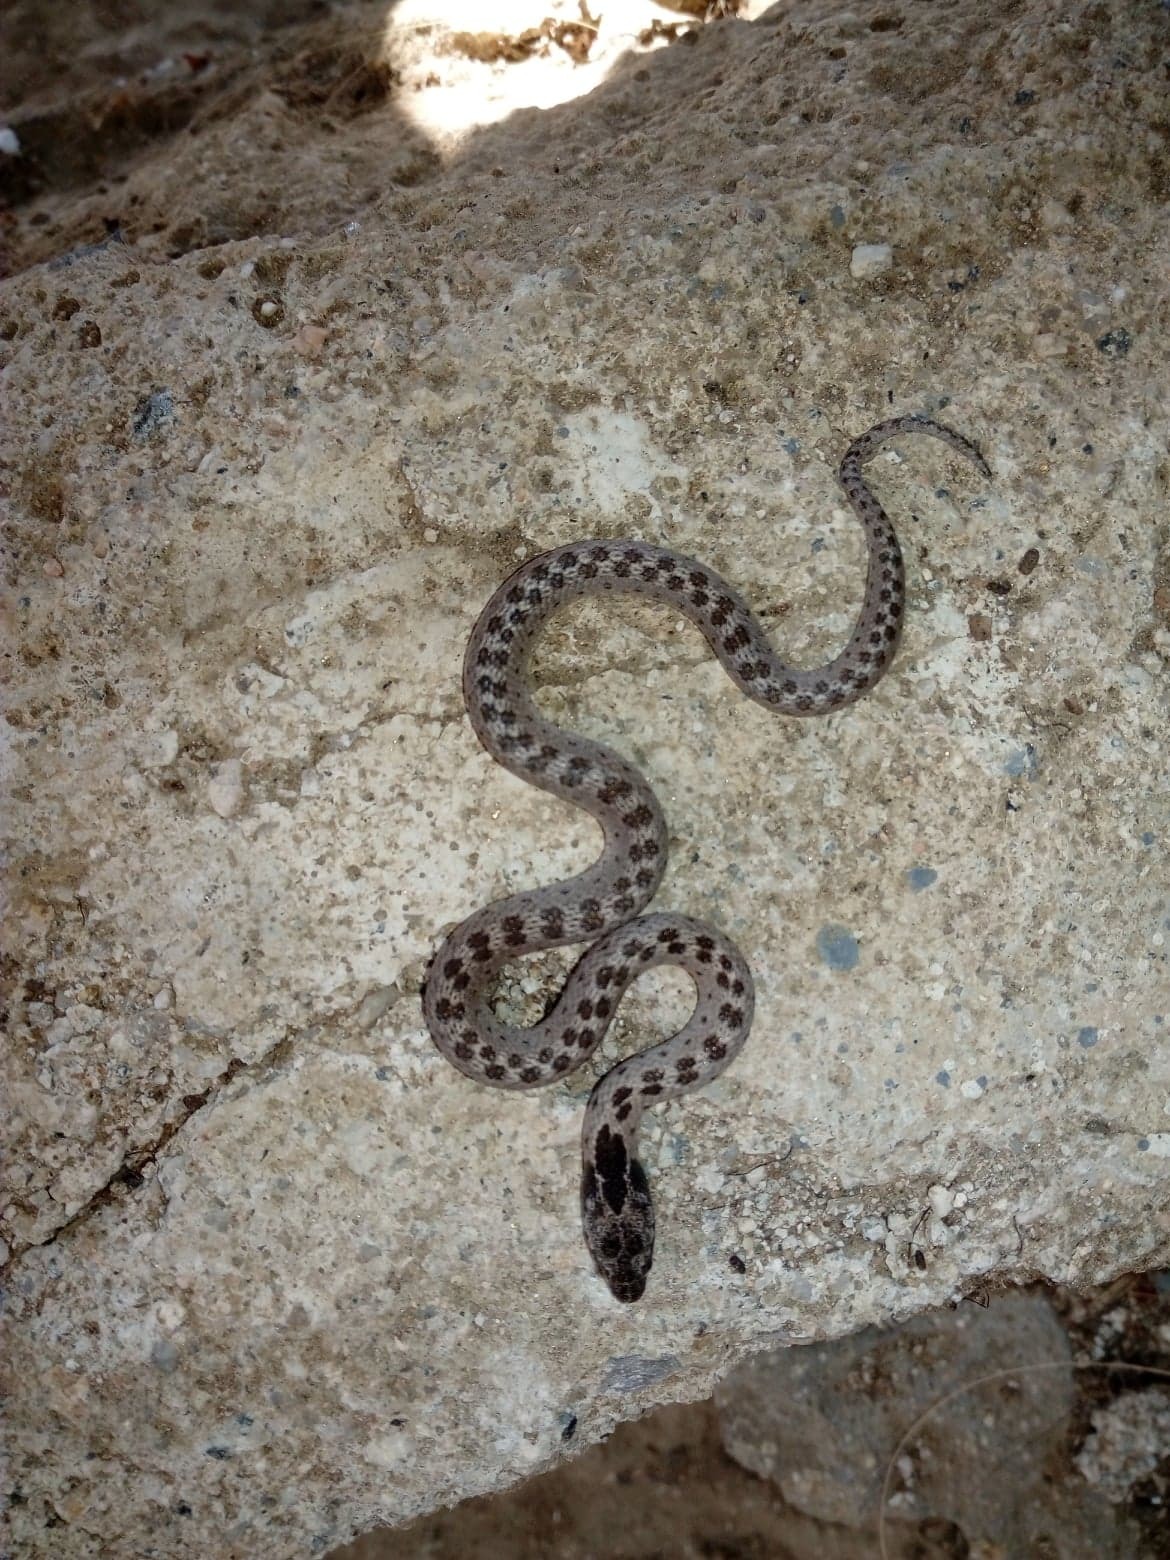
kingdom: Animalia
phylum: Chordata
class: Squamata
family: Colubridae
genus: Hypsiglena
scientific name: Hypsiglena ochrorhynchus
